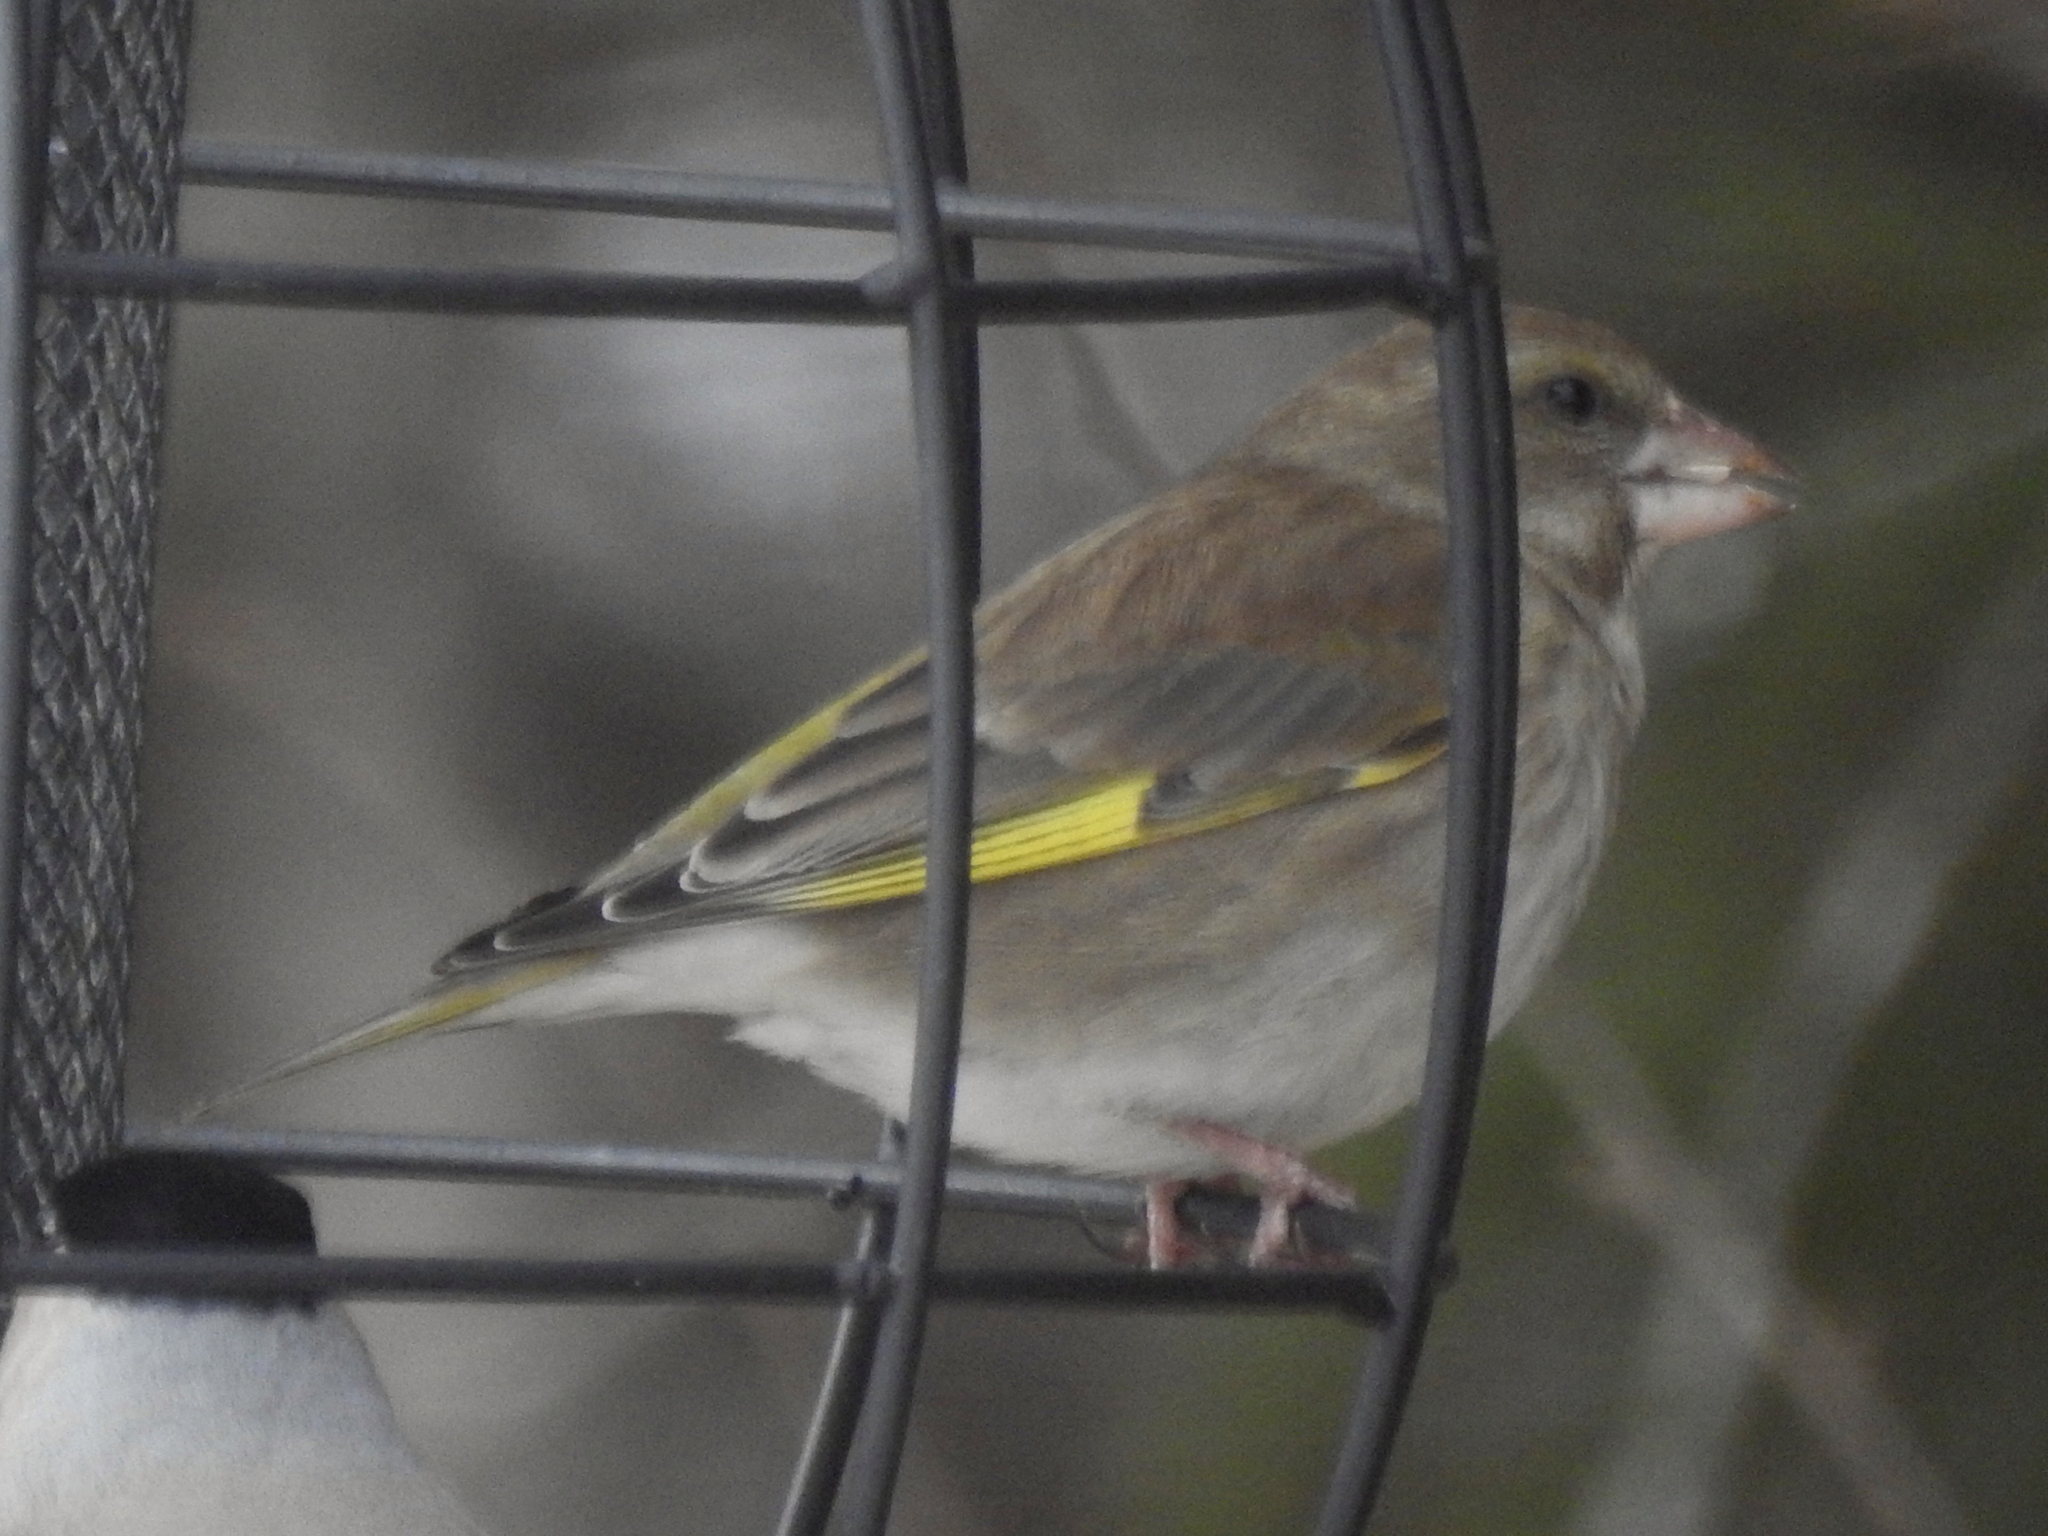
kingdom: Plantae
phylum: Tracheophyta
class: Liliopsida
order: Poales
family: Poaceae
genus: Chloris
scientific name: Chloris chloris
